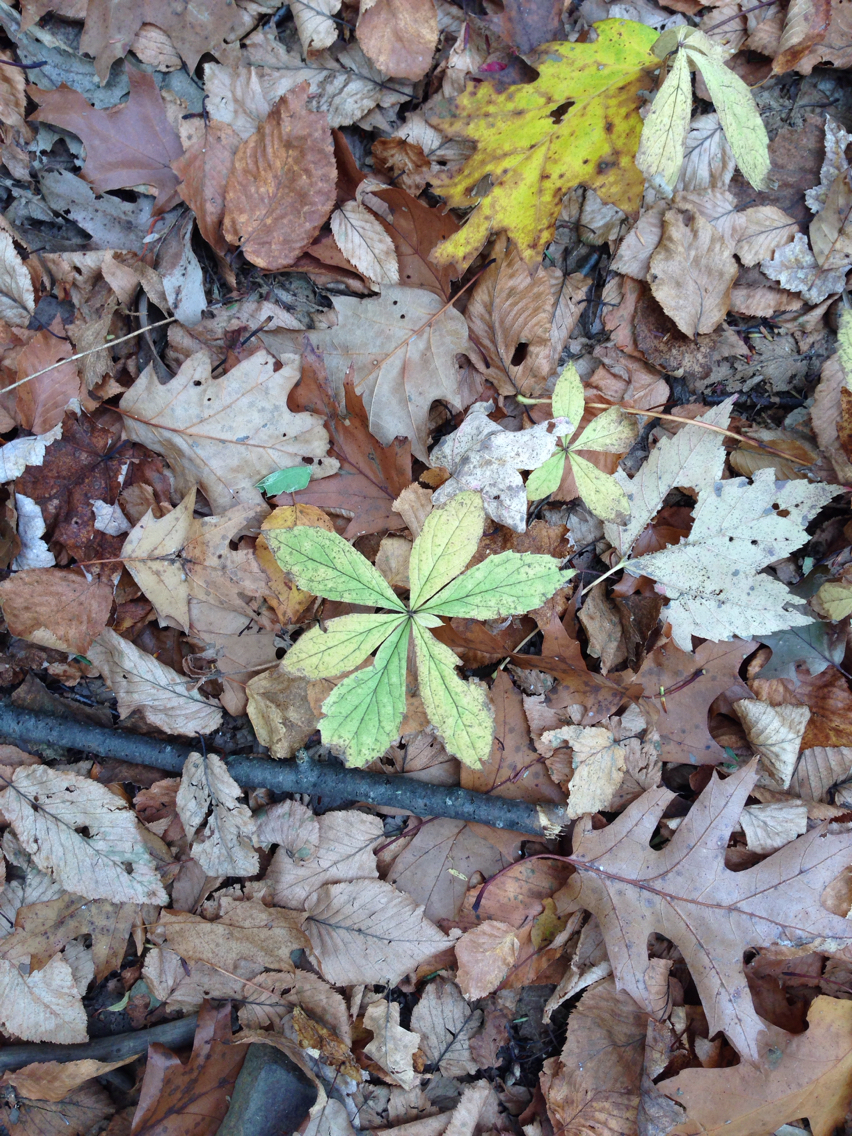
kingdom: Plantae
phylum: Tracheophyta
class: Magnoliopsida
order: Asterales
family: Asteraceae
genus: Oclemena
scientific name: Oclemena acuminata
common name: Mountain aster
